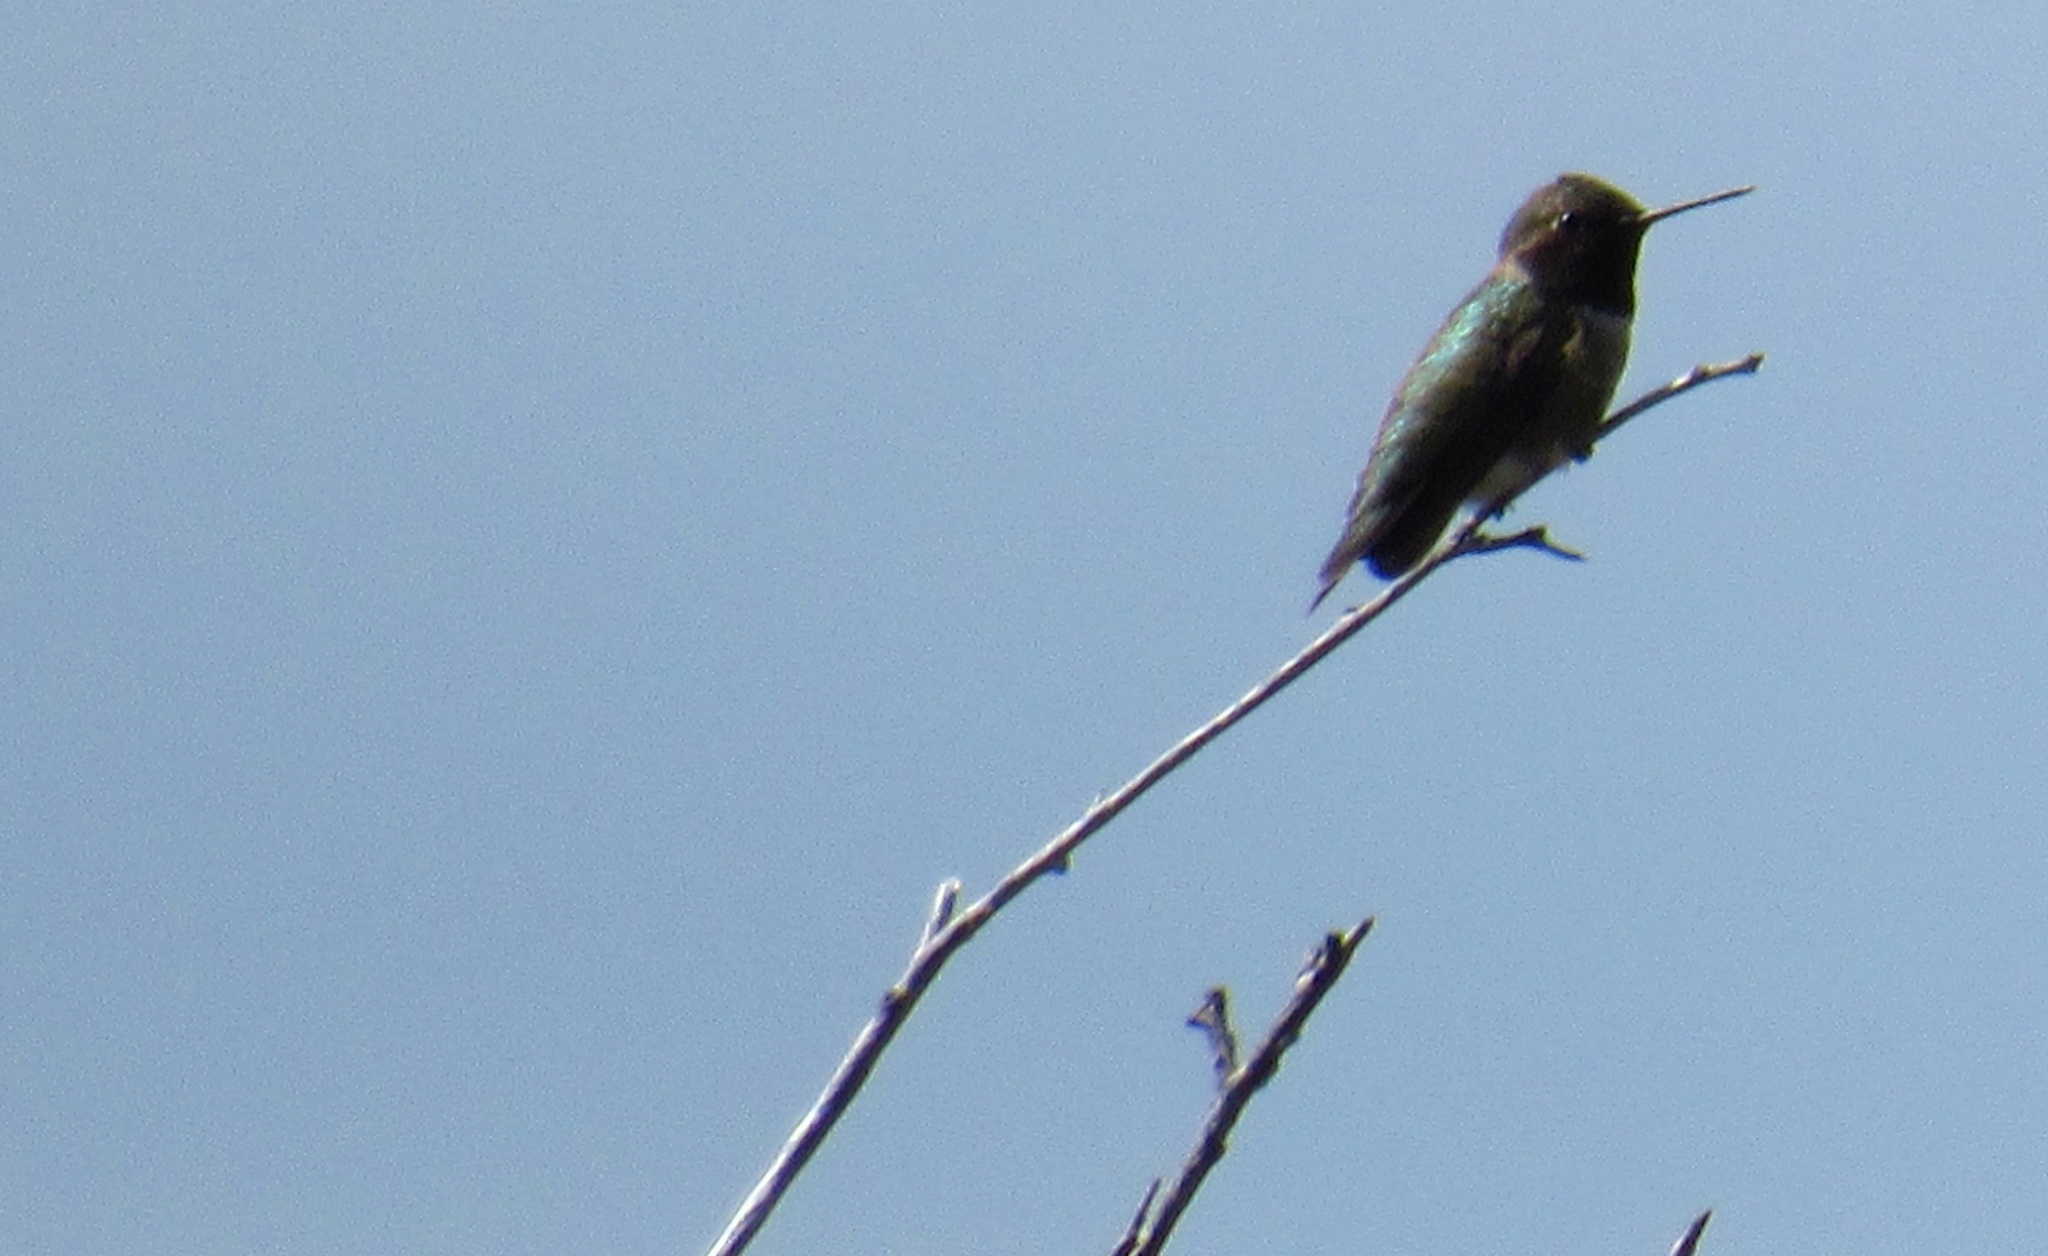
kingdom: Animalia
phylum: Chordata
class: Aves
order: Apodiformes
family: Trochilidae
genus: Calypte
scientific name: Calypte anna
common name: Anna's hummingbird
